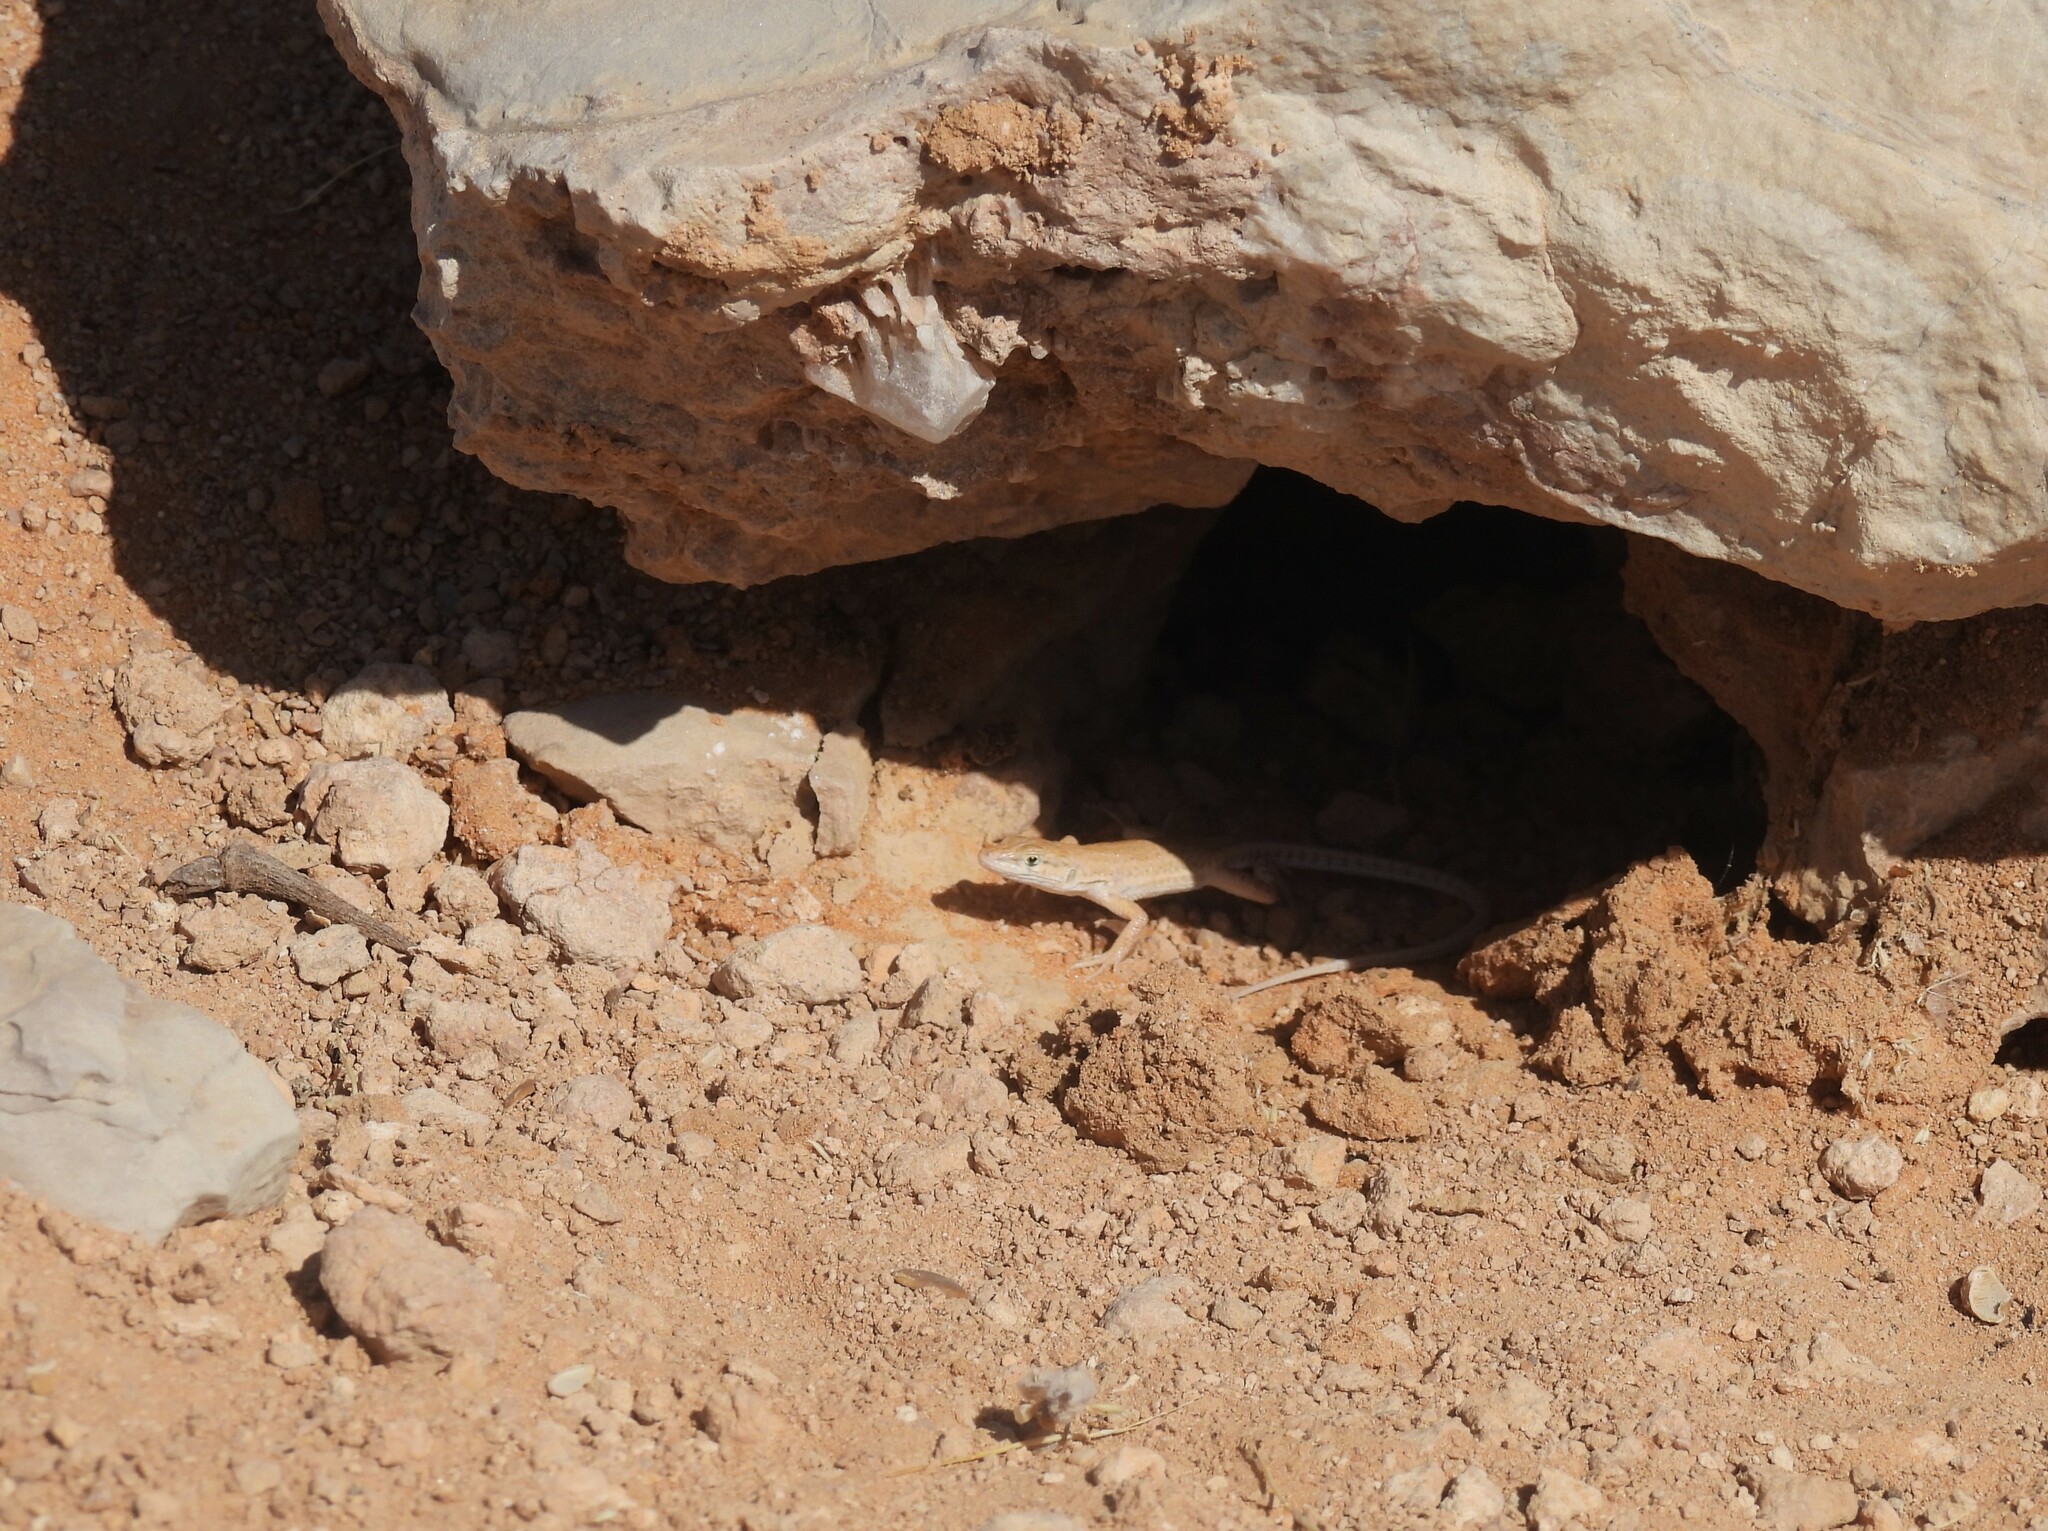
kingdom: Animalia
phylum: Chordata
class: Squamata
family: Lacertidae
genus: Mesalina
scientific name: Mesalina guttulata
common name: Desert lacerta
